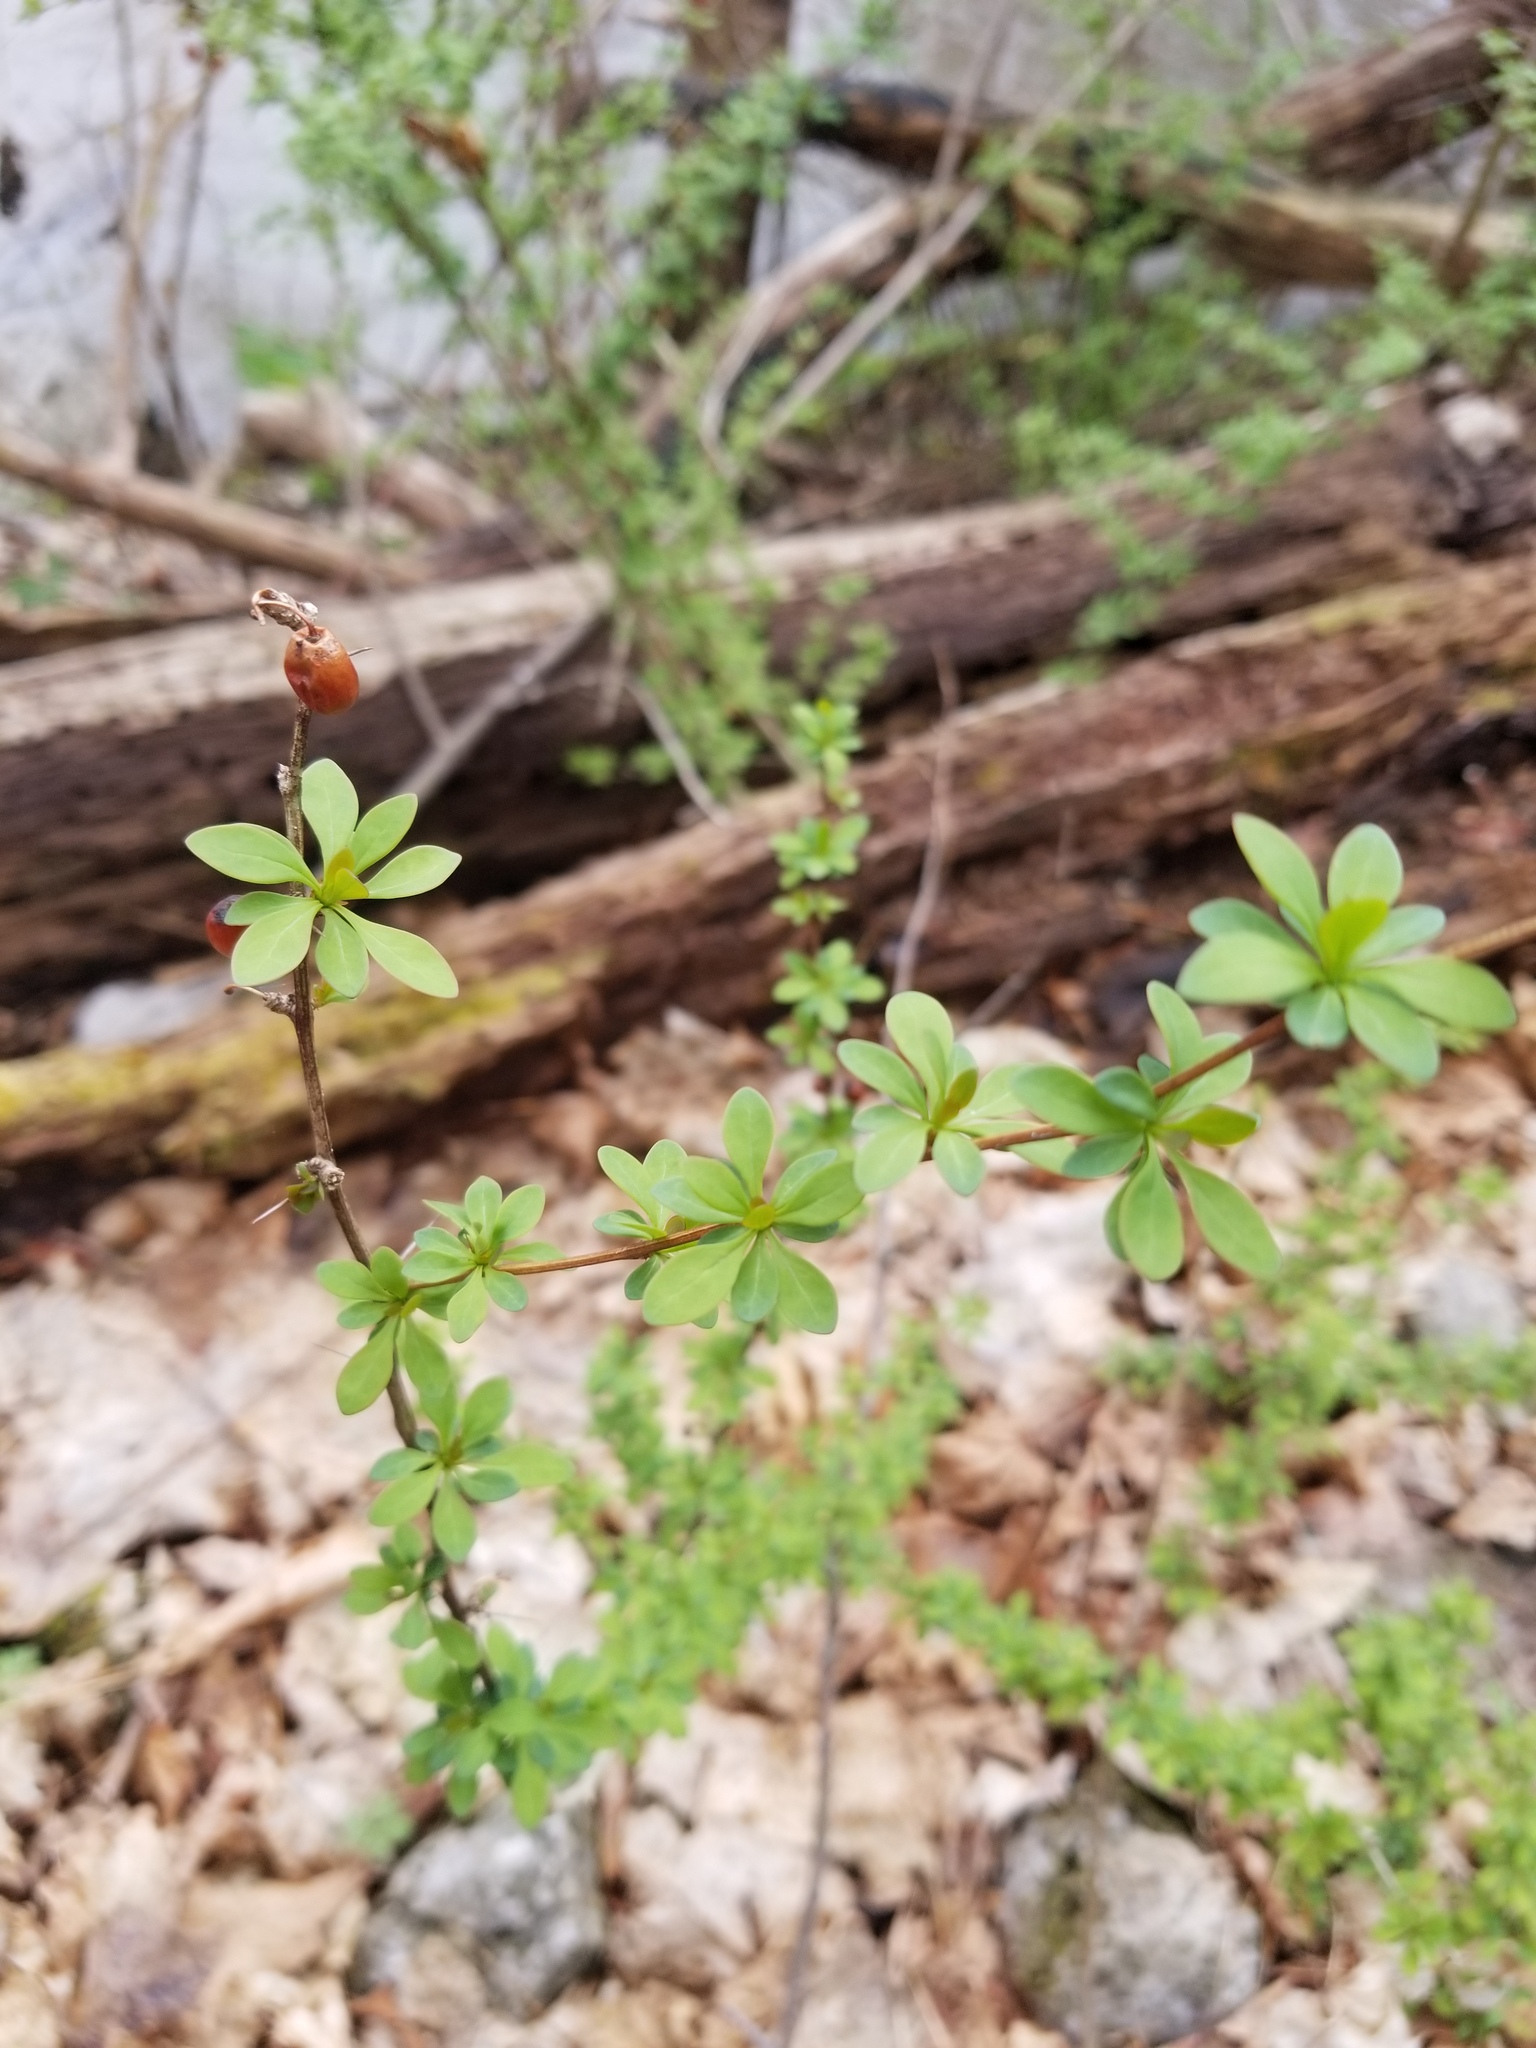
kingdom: Plantae
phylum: Tracheophyta
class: Magnoliopsida
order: Ranunculales
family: Berberidaceae
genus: Berberis
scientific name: Berberis thunbergii
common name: Japanese barberry
